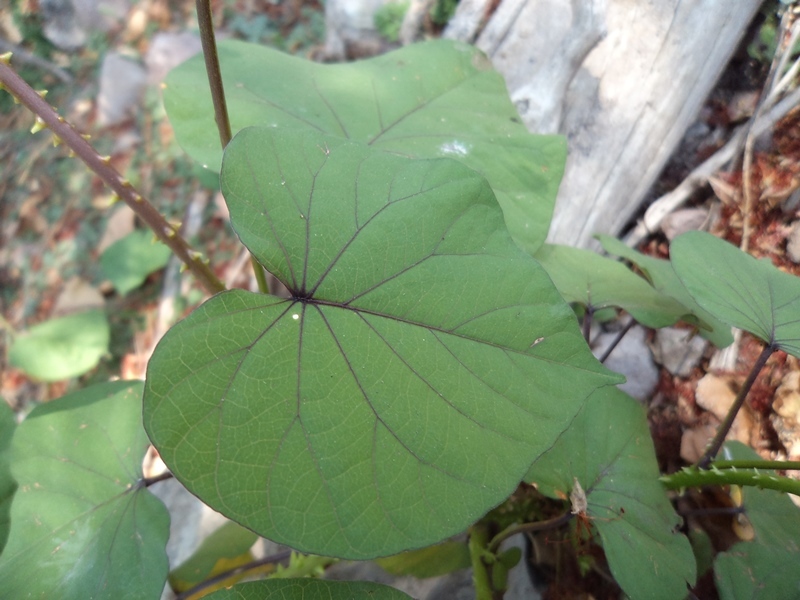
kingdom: Plantae
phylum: Tracheophyta
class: Magnoliopsida
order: Solanales
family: Convolvulaceae
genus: Ipomoea
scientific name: Ipomoea parasitica
